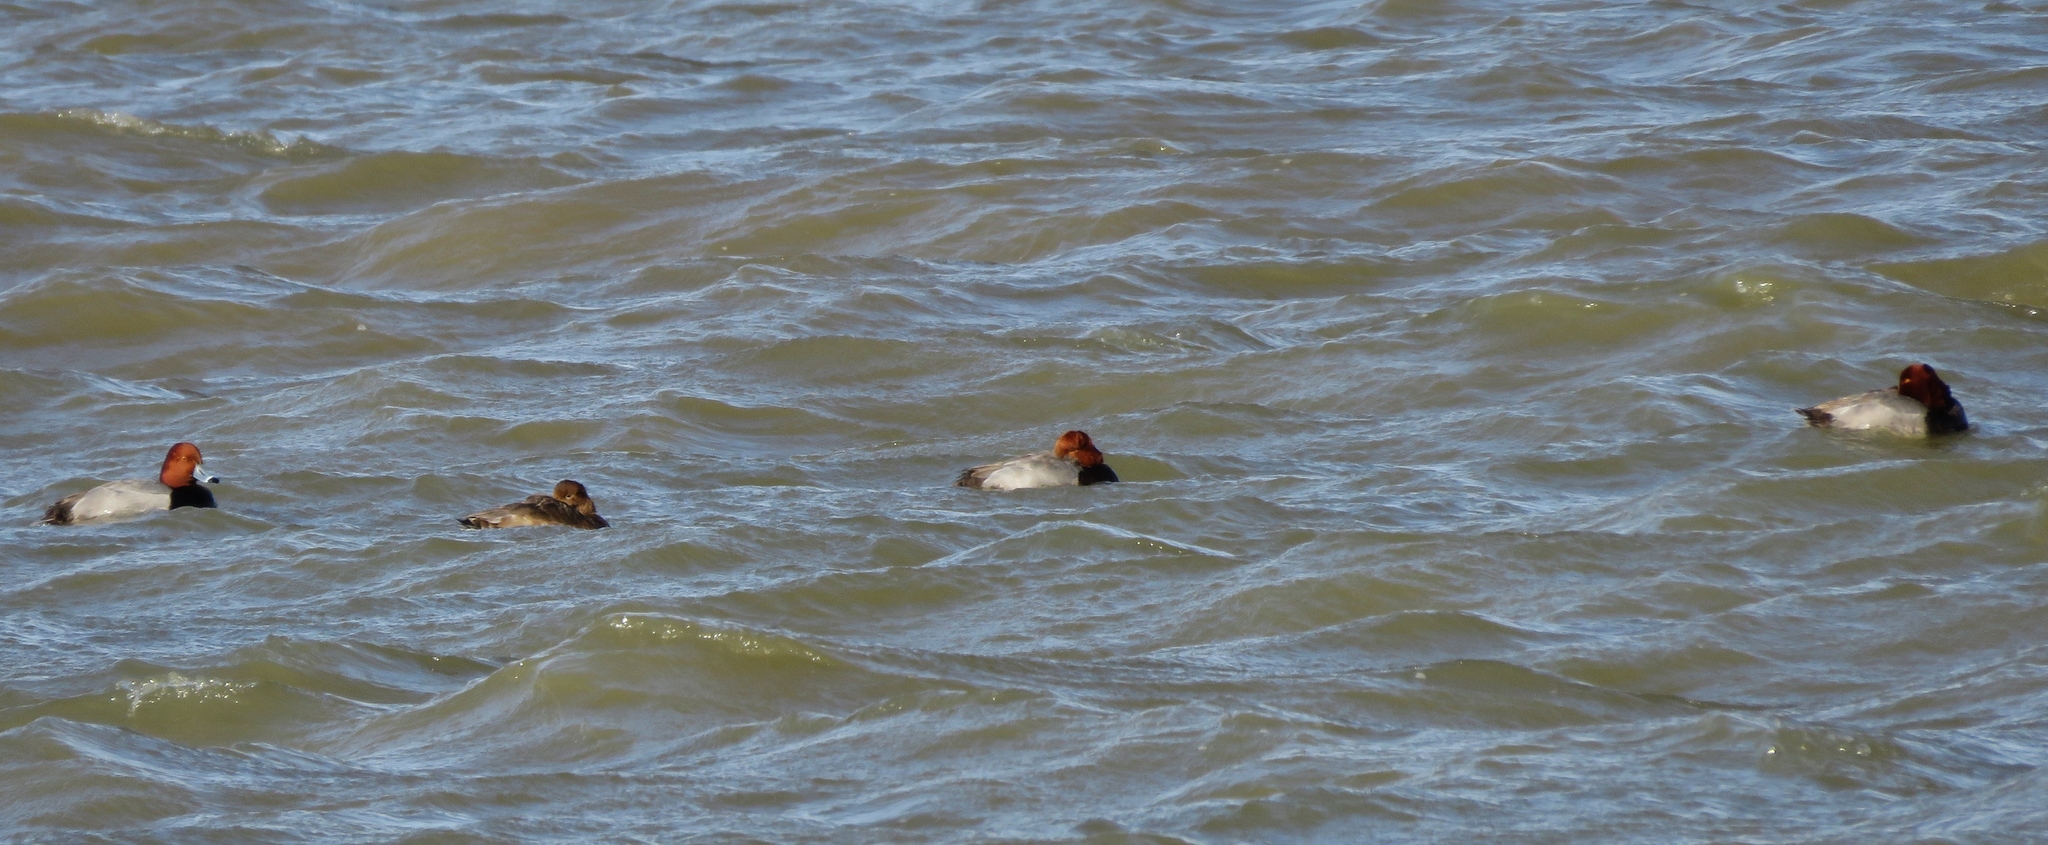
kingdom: Animalia
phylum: Chordata
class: Aves
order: Anseriformes
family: Anatidae
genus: Aythya
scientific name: Aythya americana
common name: Redhead
